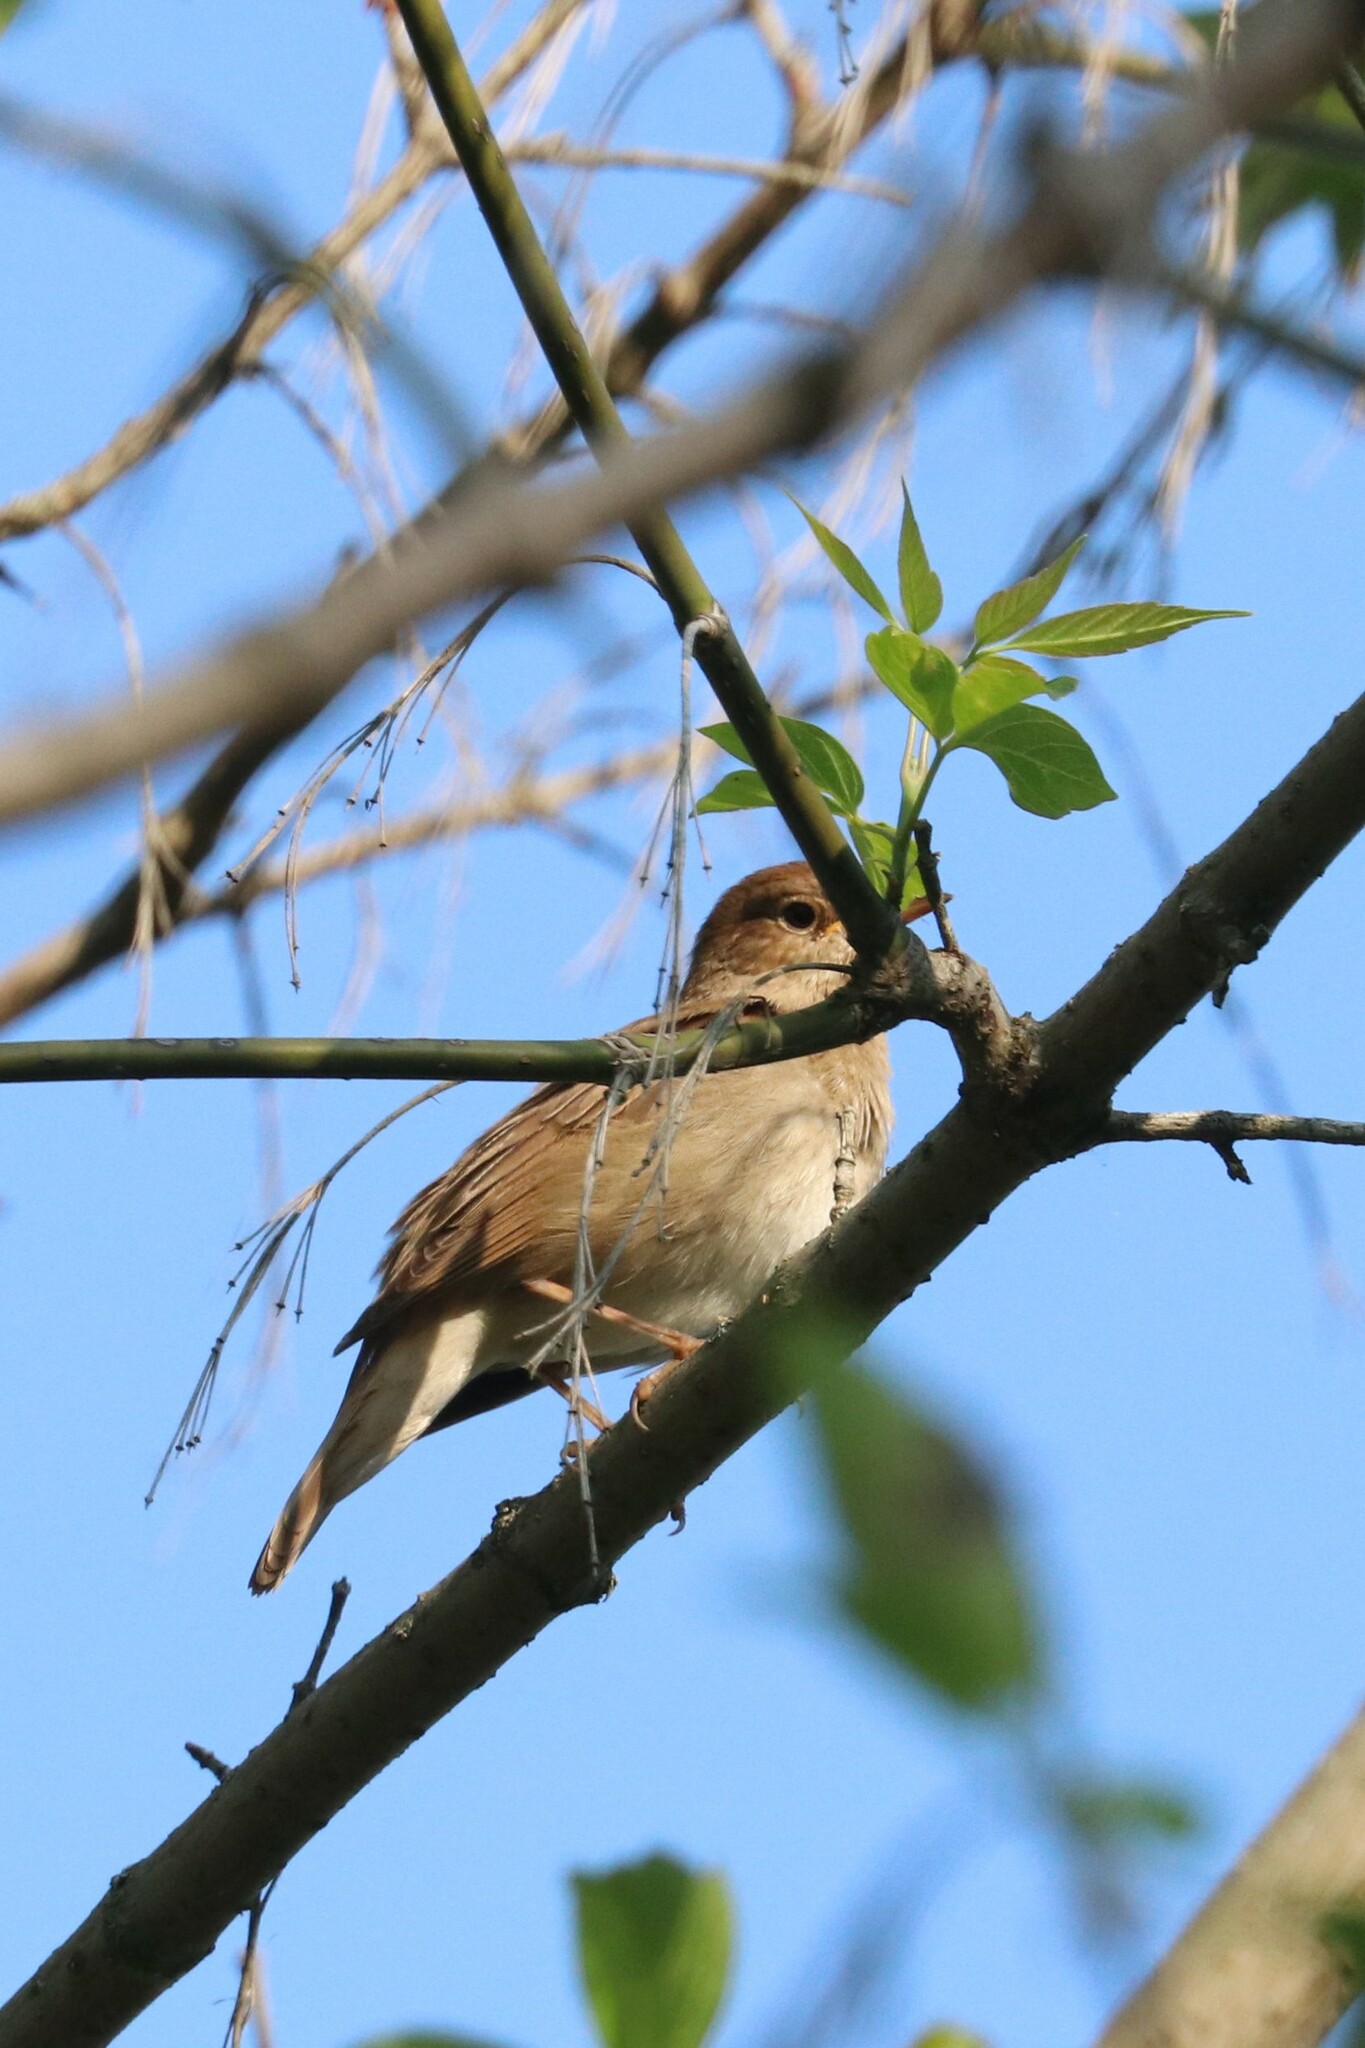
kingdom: Animalia
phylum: Chordata
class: Aves
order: Passeriformes
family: Muscicapidae
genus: Luscinia
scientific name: Luscinia luscinia
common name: Thrush nightingale
